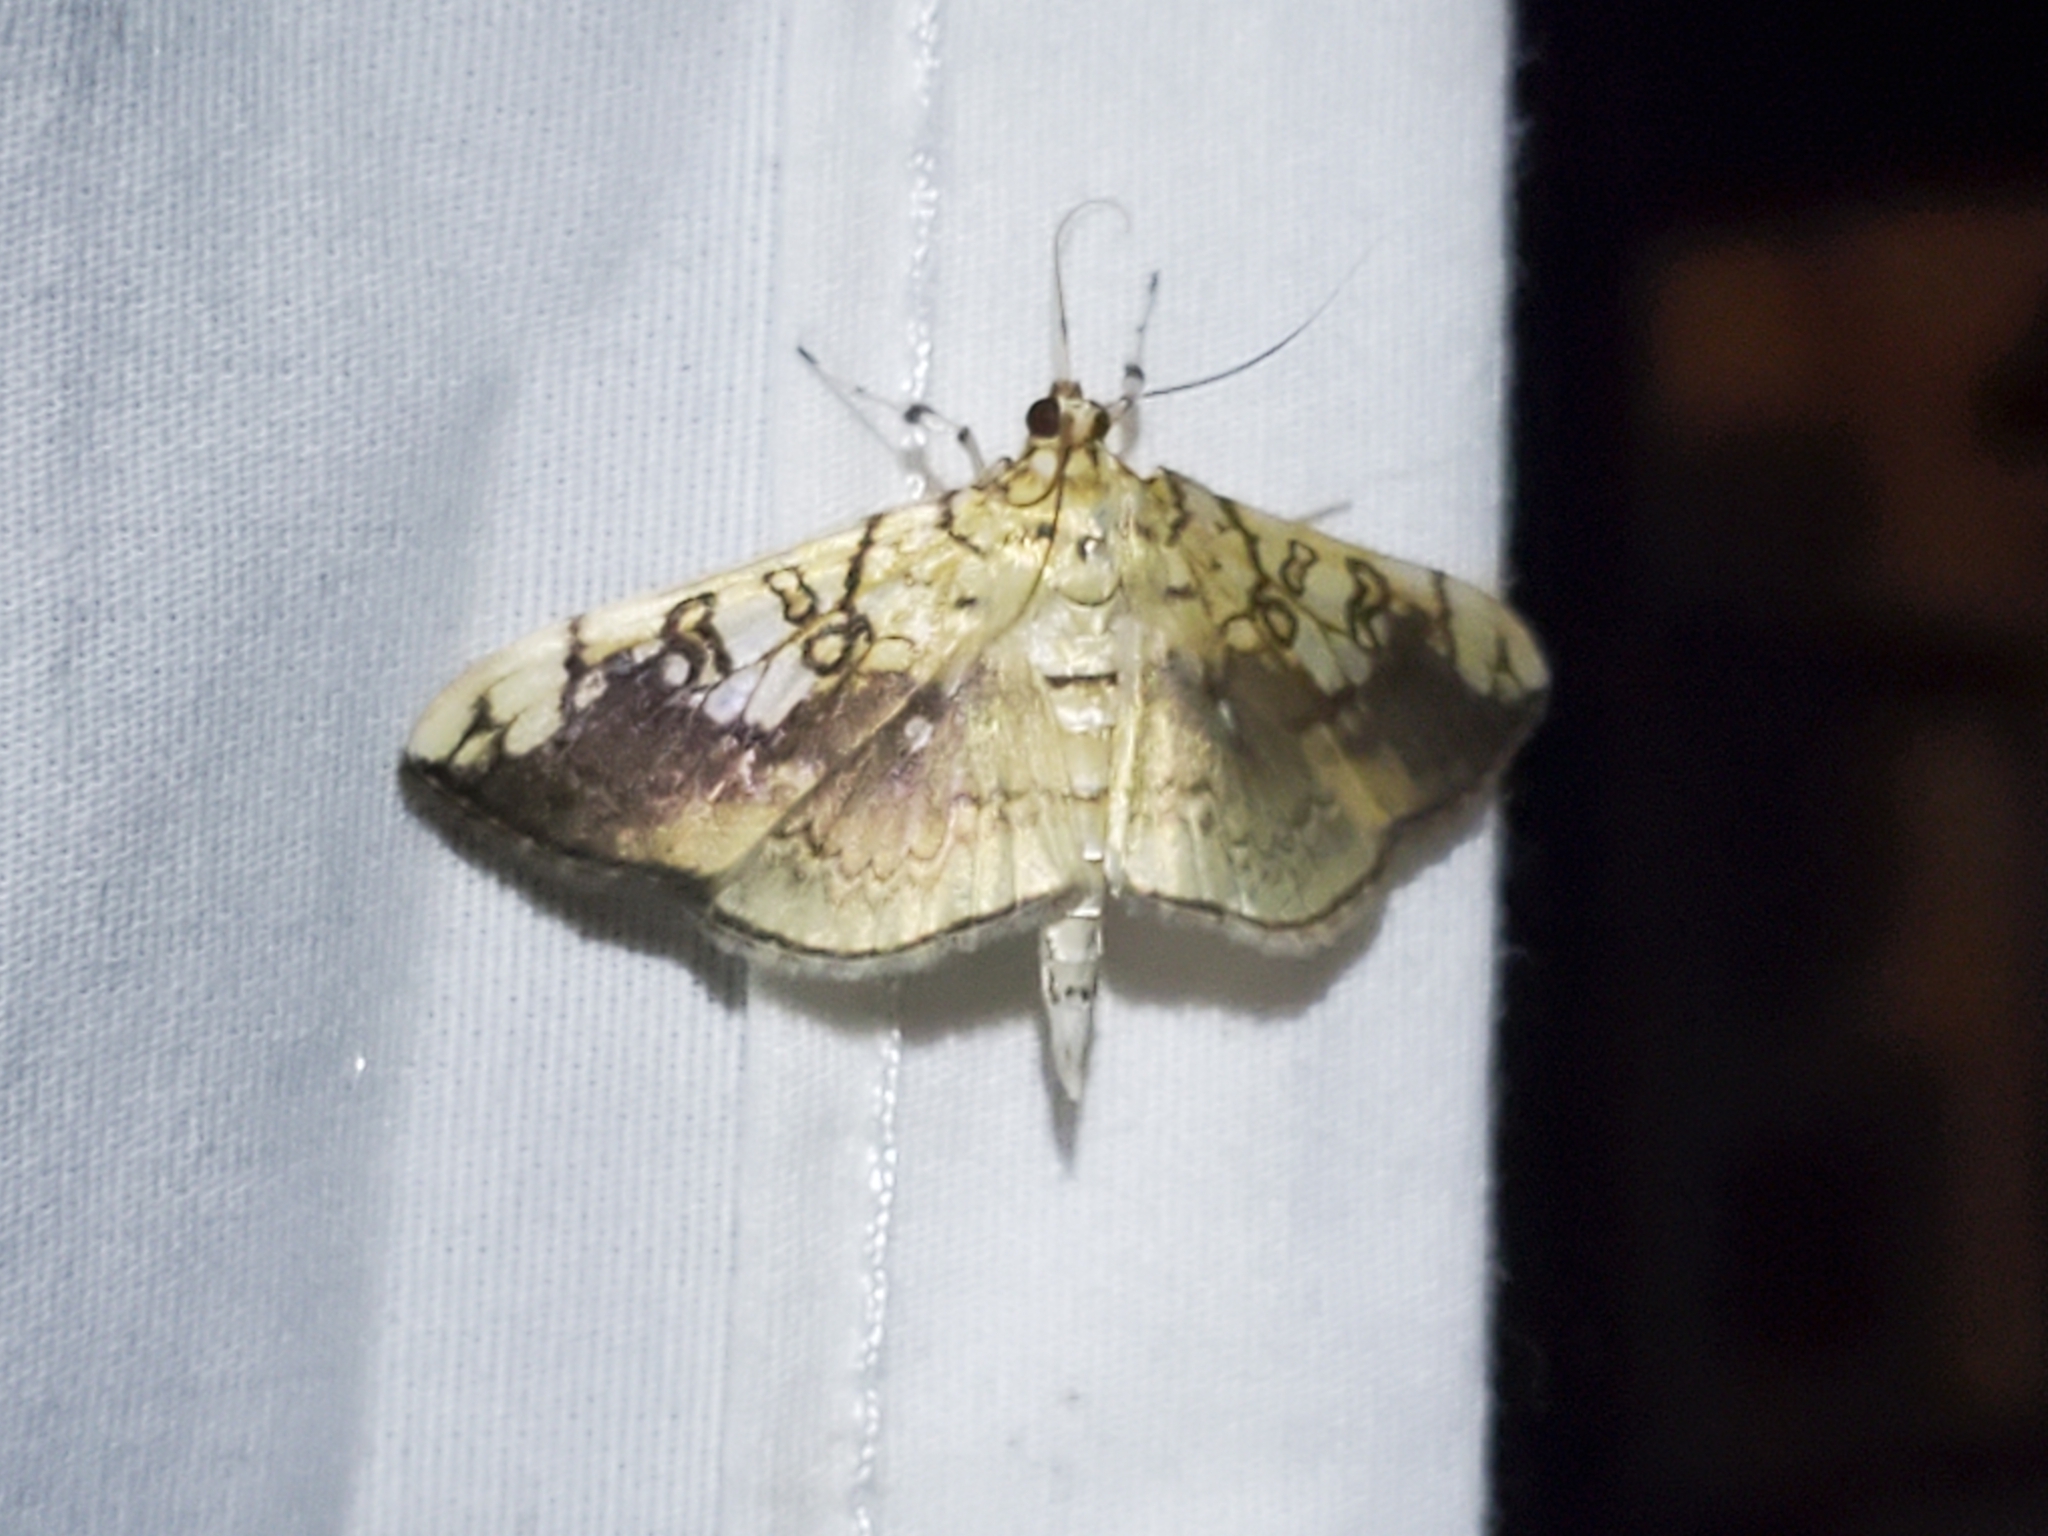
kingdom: Animalia
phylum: Arthropoda
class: Insecta
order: Lepidoptera
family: Crambidae
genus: Pantographa
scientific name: Pantographa limata
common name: Basswood leafroller moth
